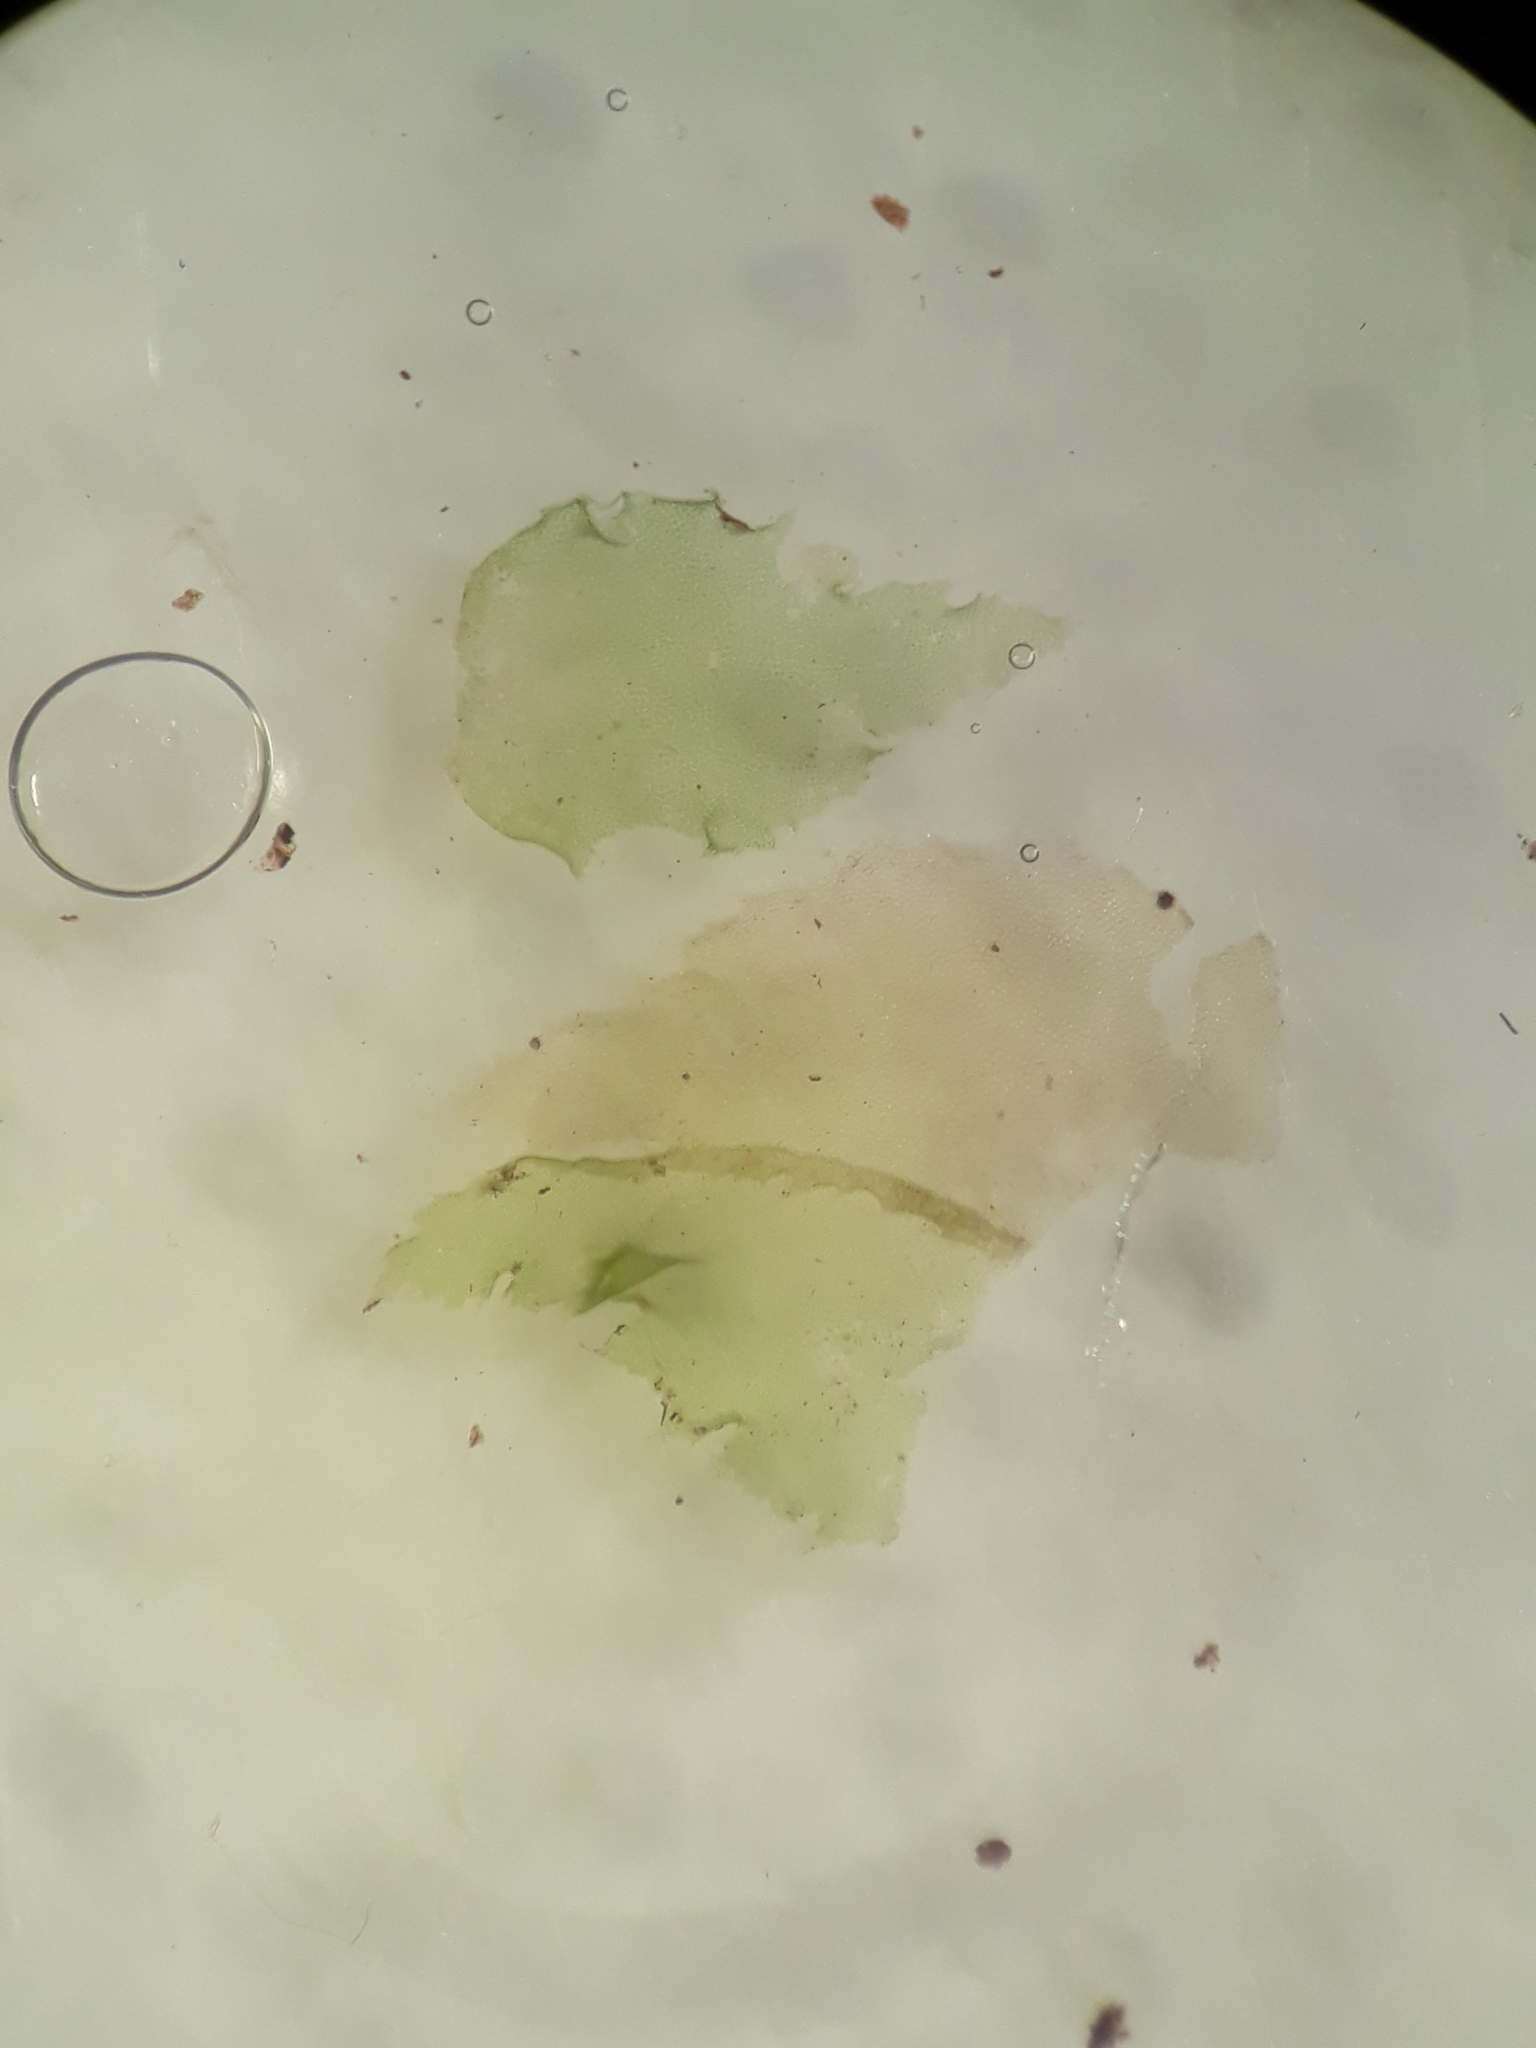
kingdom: Plantae
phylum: Marchantiophyta
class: Jungermanniopsida
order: Jungermanniales
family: Schistochilaceae
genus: Schistochila
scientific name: Schistochila pinnatifolia
